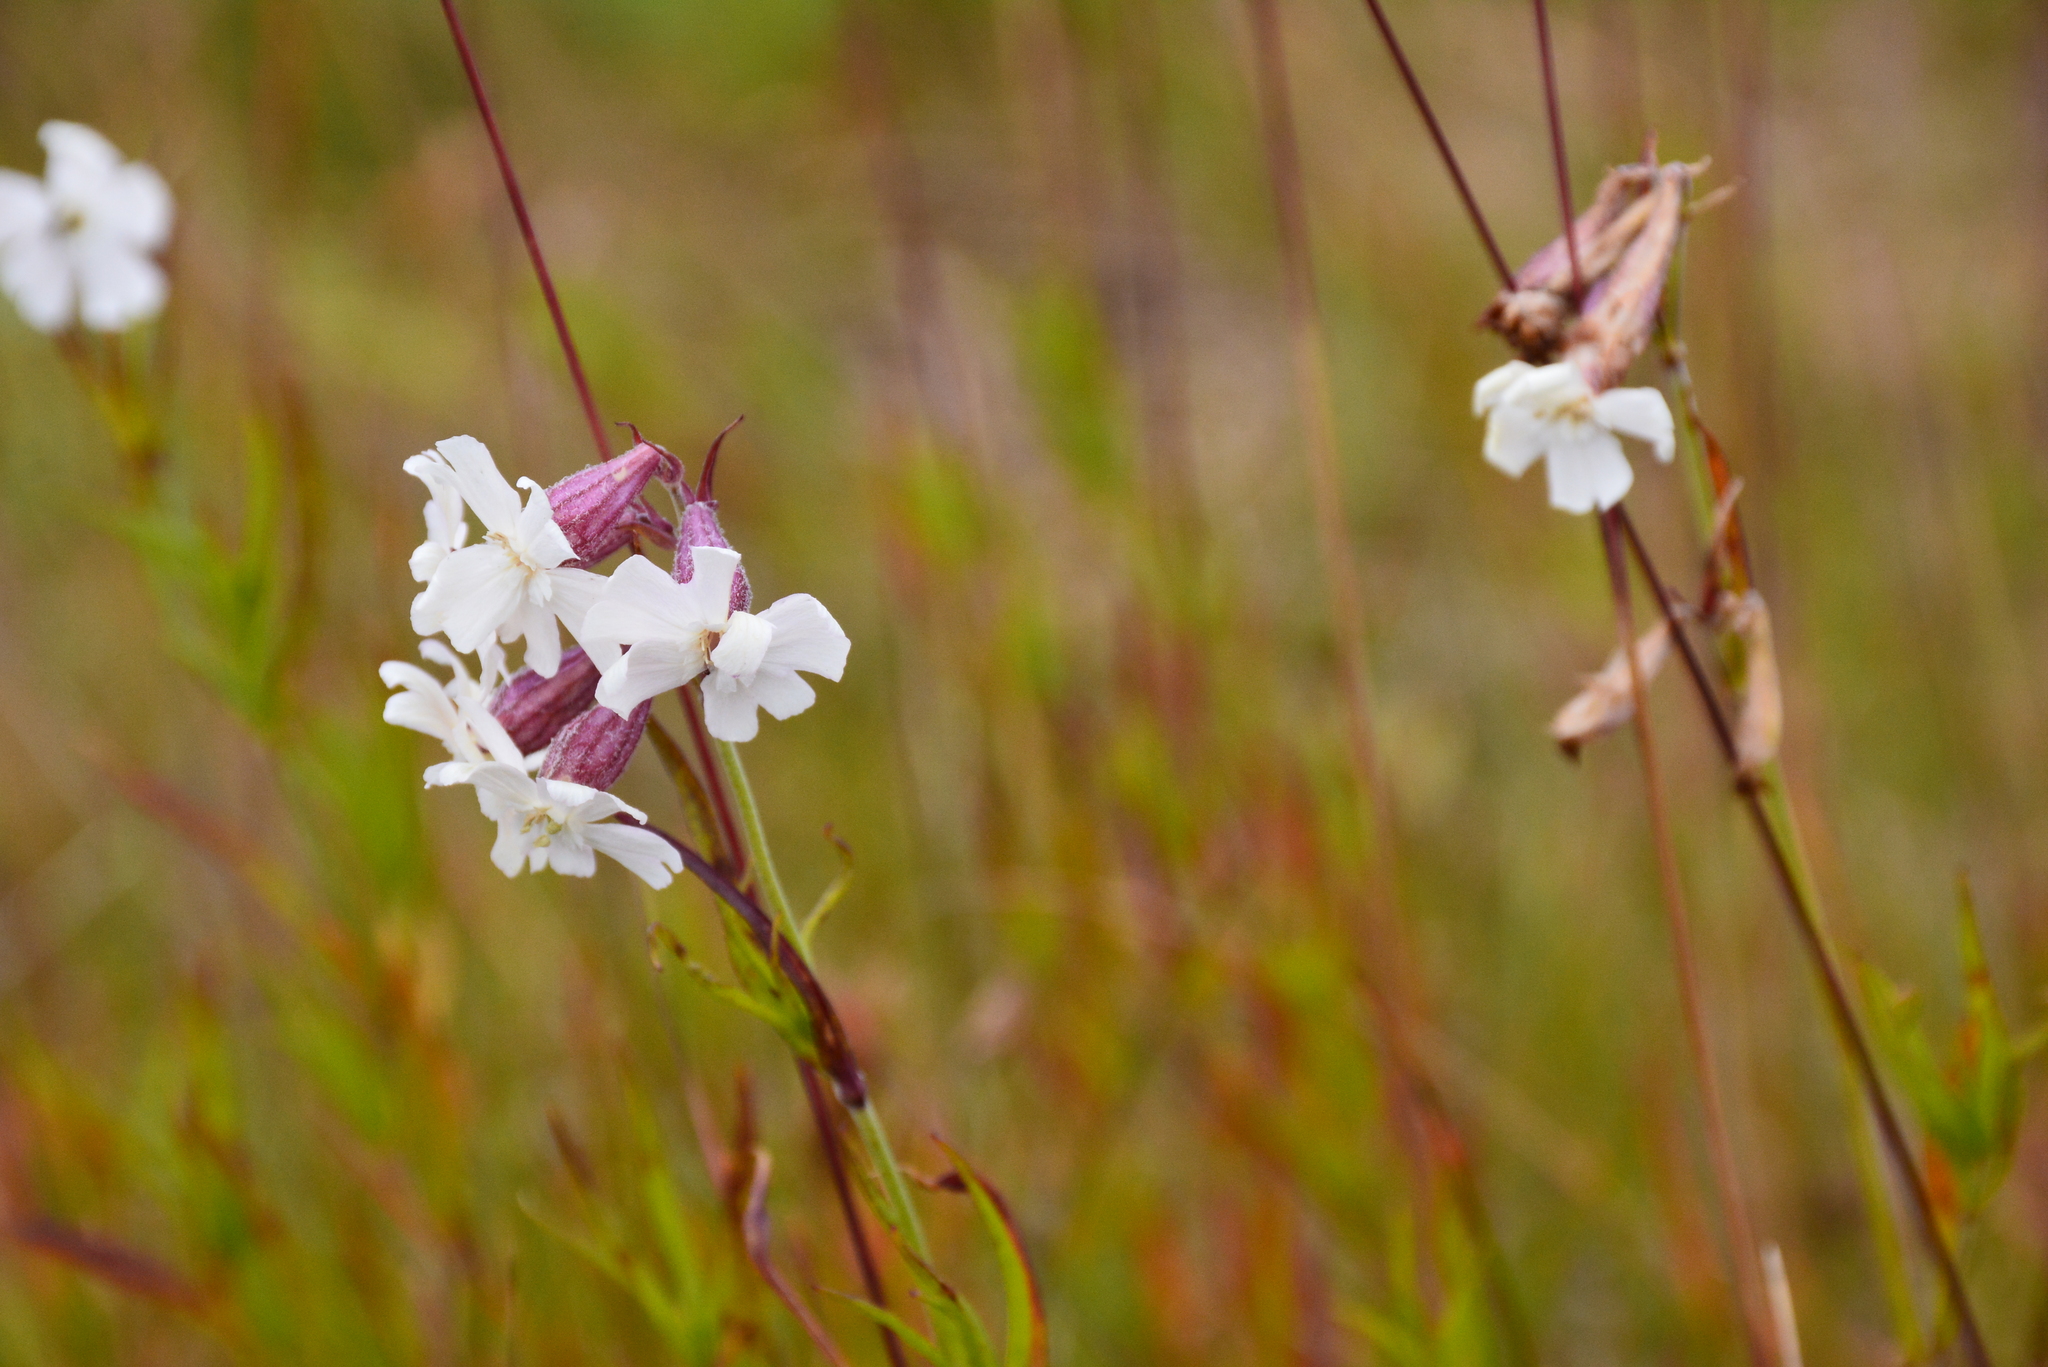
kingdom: Plantae
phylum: Tracheophyta
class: Magnoliopsida
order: Caryophyllales
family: Caryophyllaceae
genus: Silene
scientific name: Silene repens
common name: Pink campion
